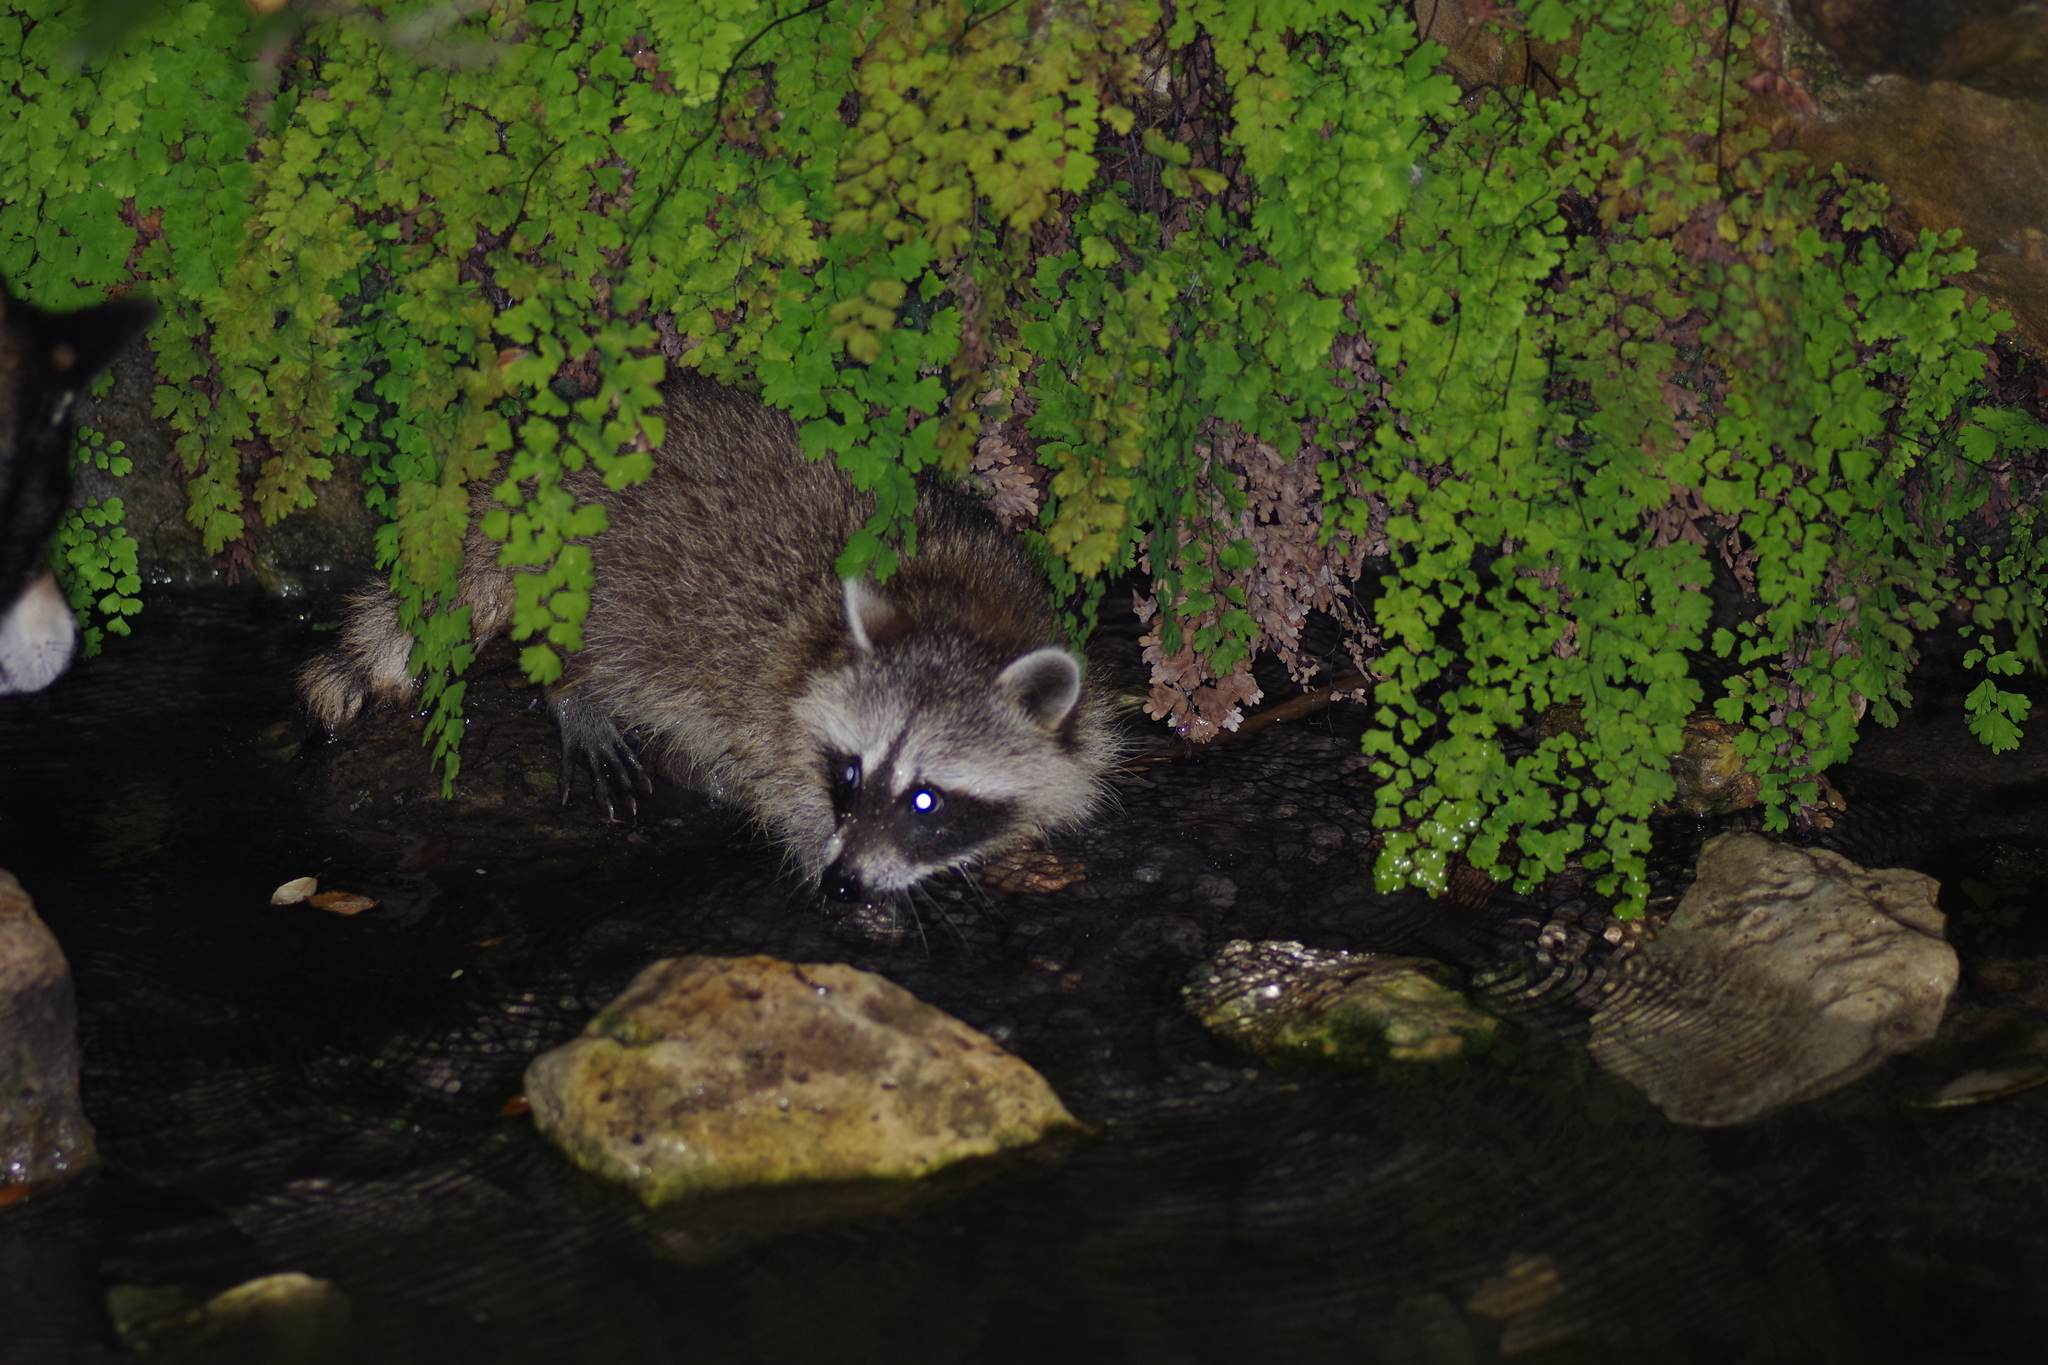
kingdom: Animalia
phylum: Chordata
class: Mammalia
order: Carnivora
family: Procyonidae
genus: Procyon
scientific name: Procyon lotor
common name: Raccoon
